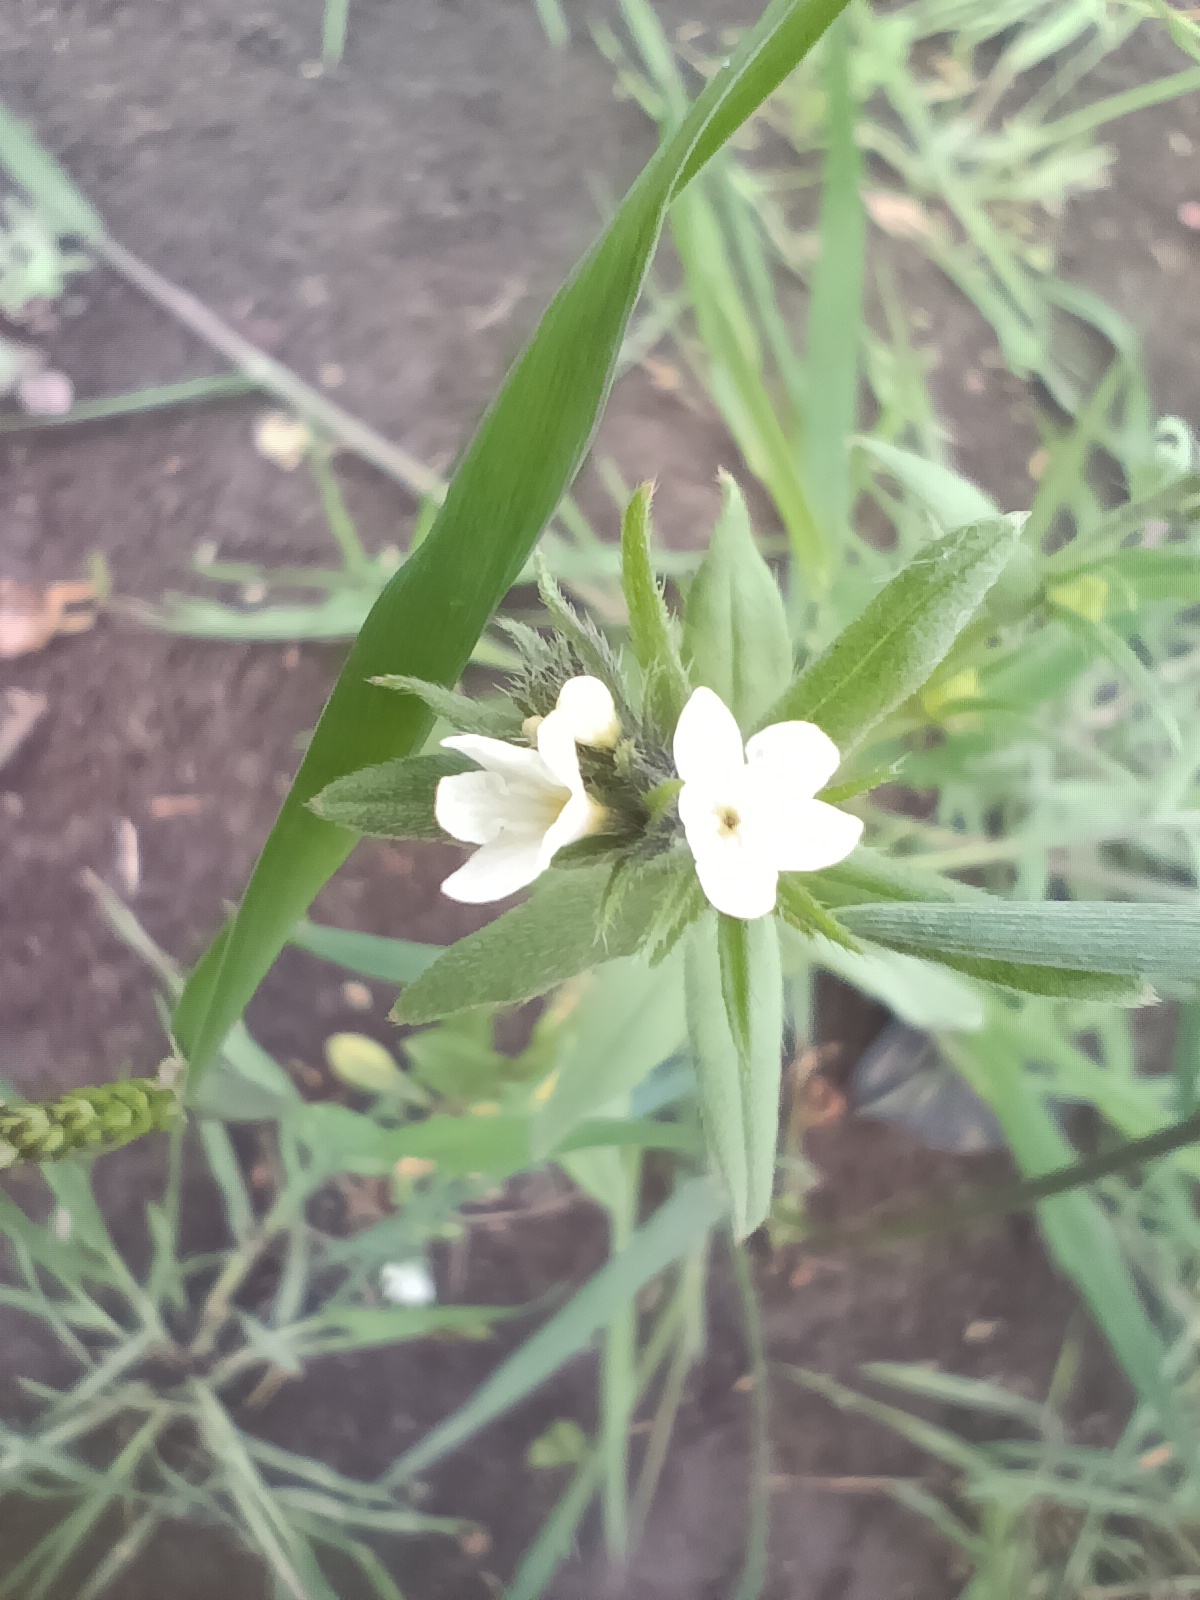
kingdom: Plantae
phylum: Tracheophyta
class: Magnoliopsida
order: Boraginales
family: Boraginaceae
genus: Buglossoides
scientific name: Buglossoides arvensis
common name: Corn gromwell
